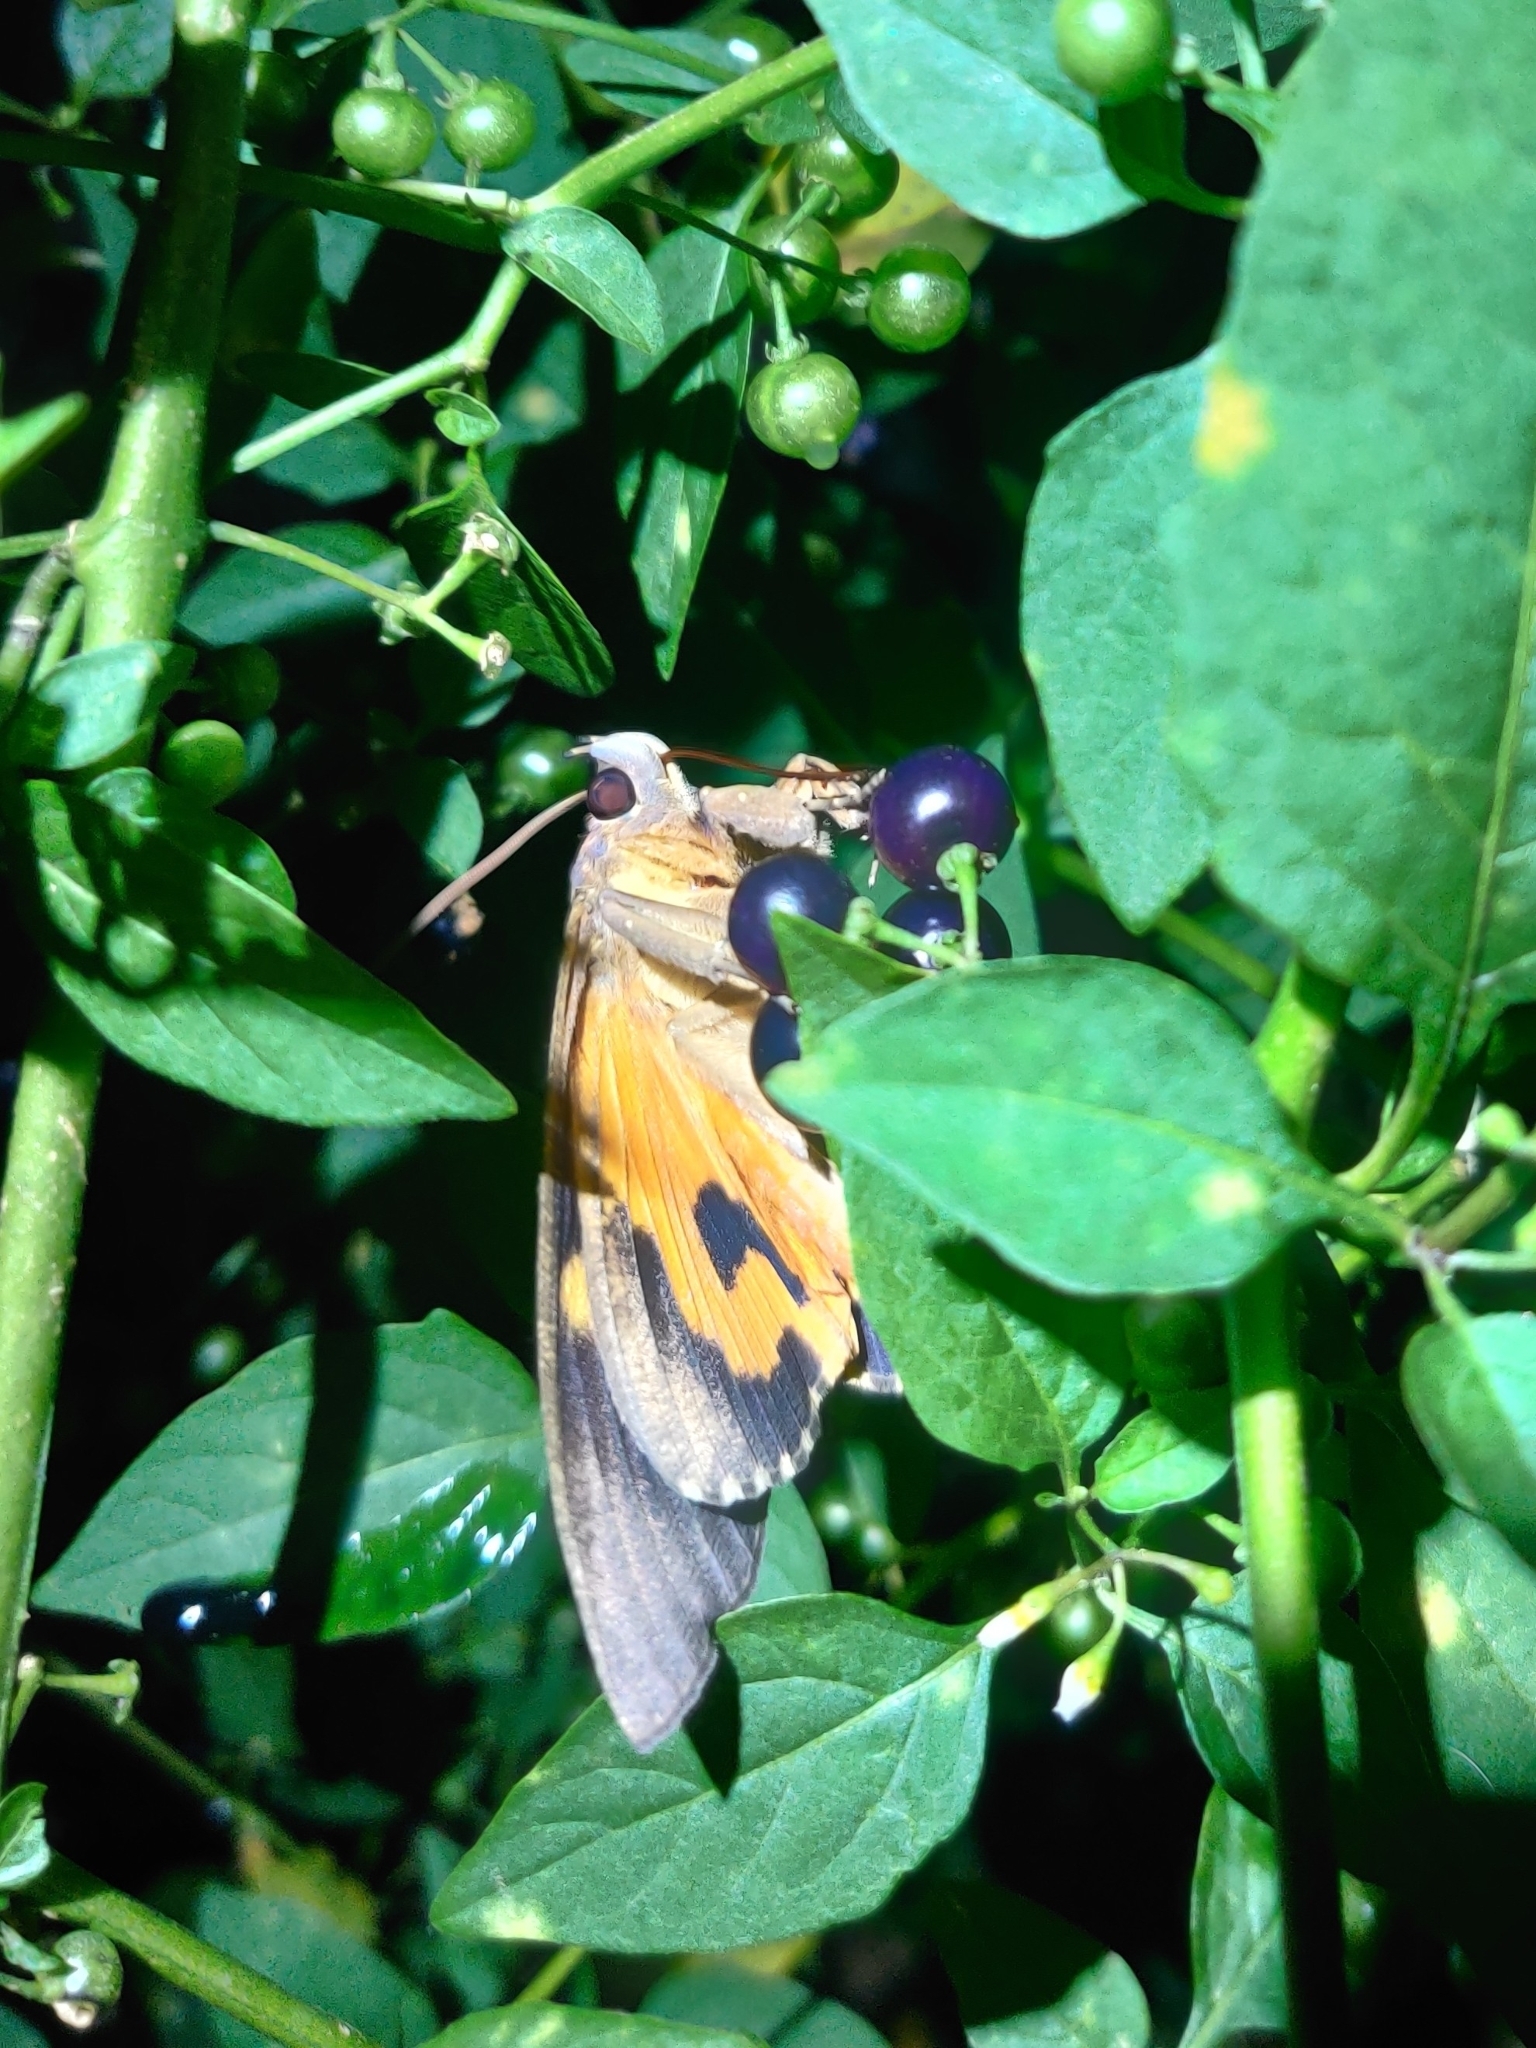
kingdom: Animalia
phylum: Arthropoda
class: Insecta
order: Lepidoptera
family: Erebidae
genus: Eudocima
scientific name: Eudocima phalonia
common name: Wasp
